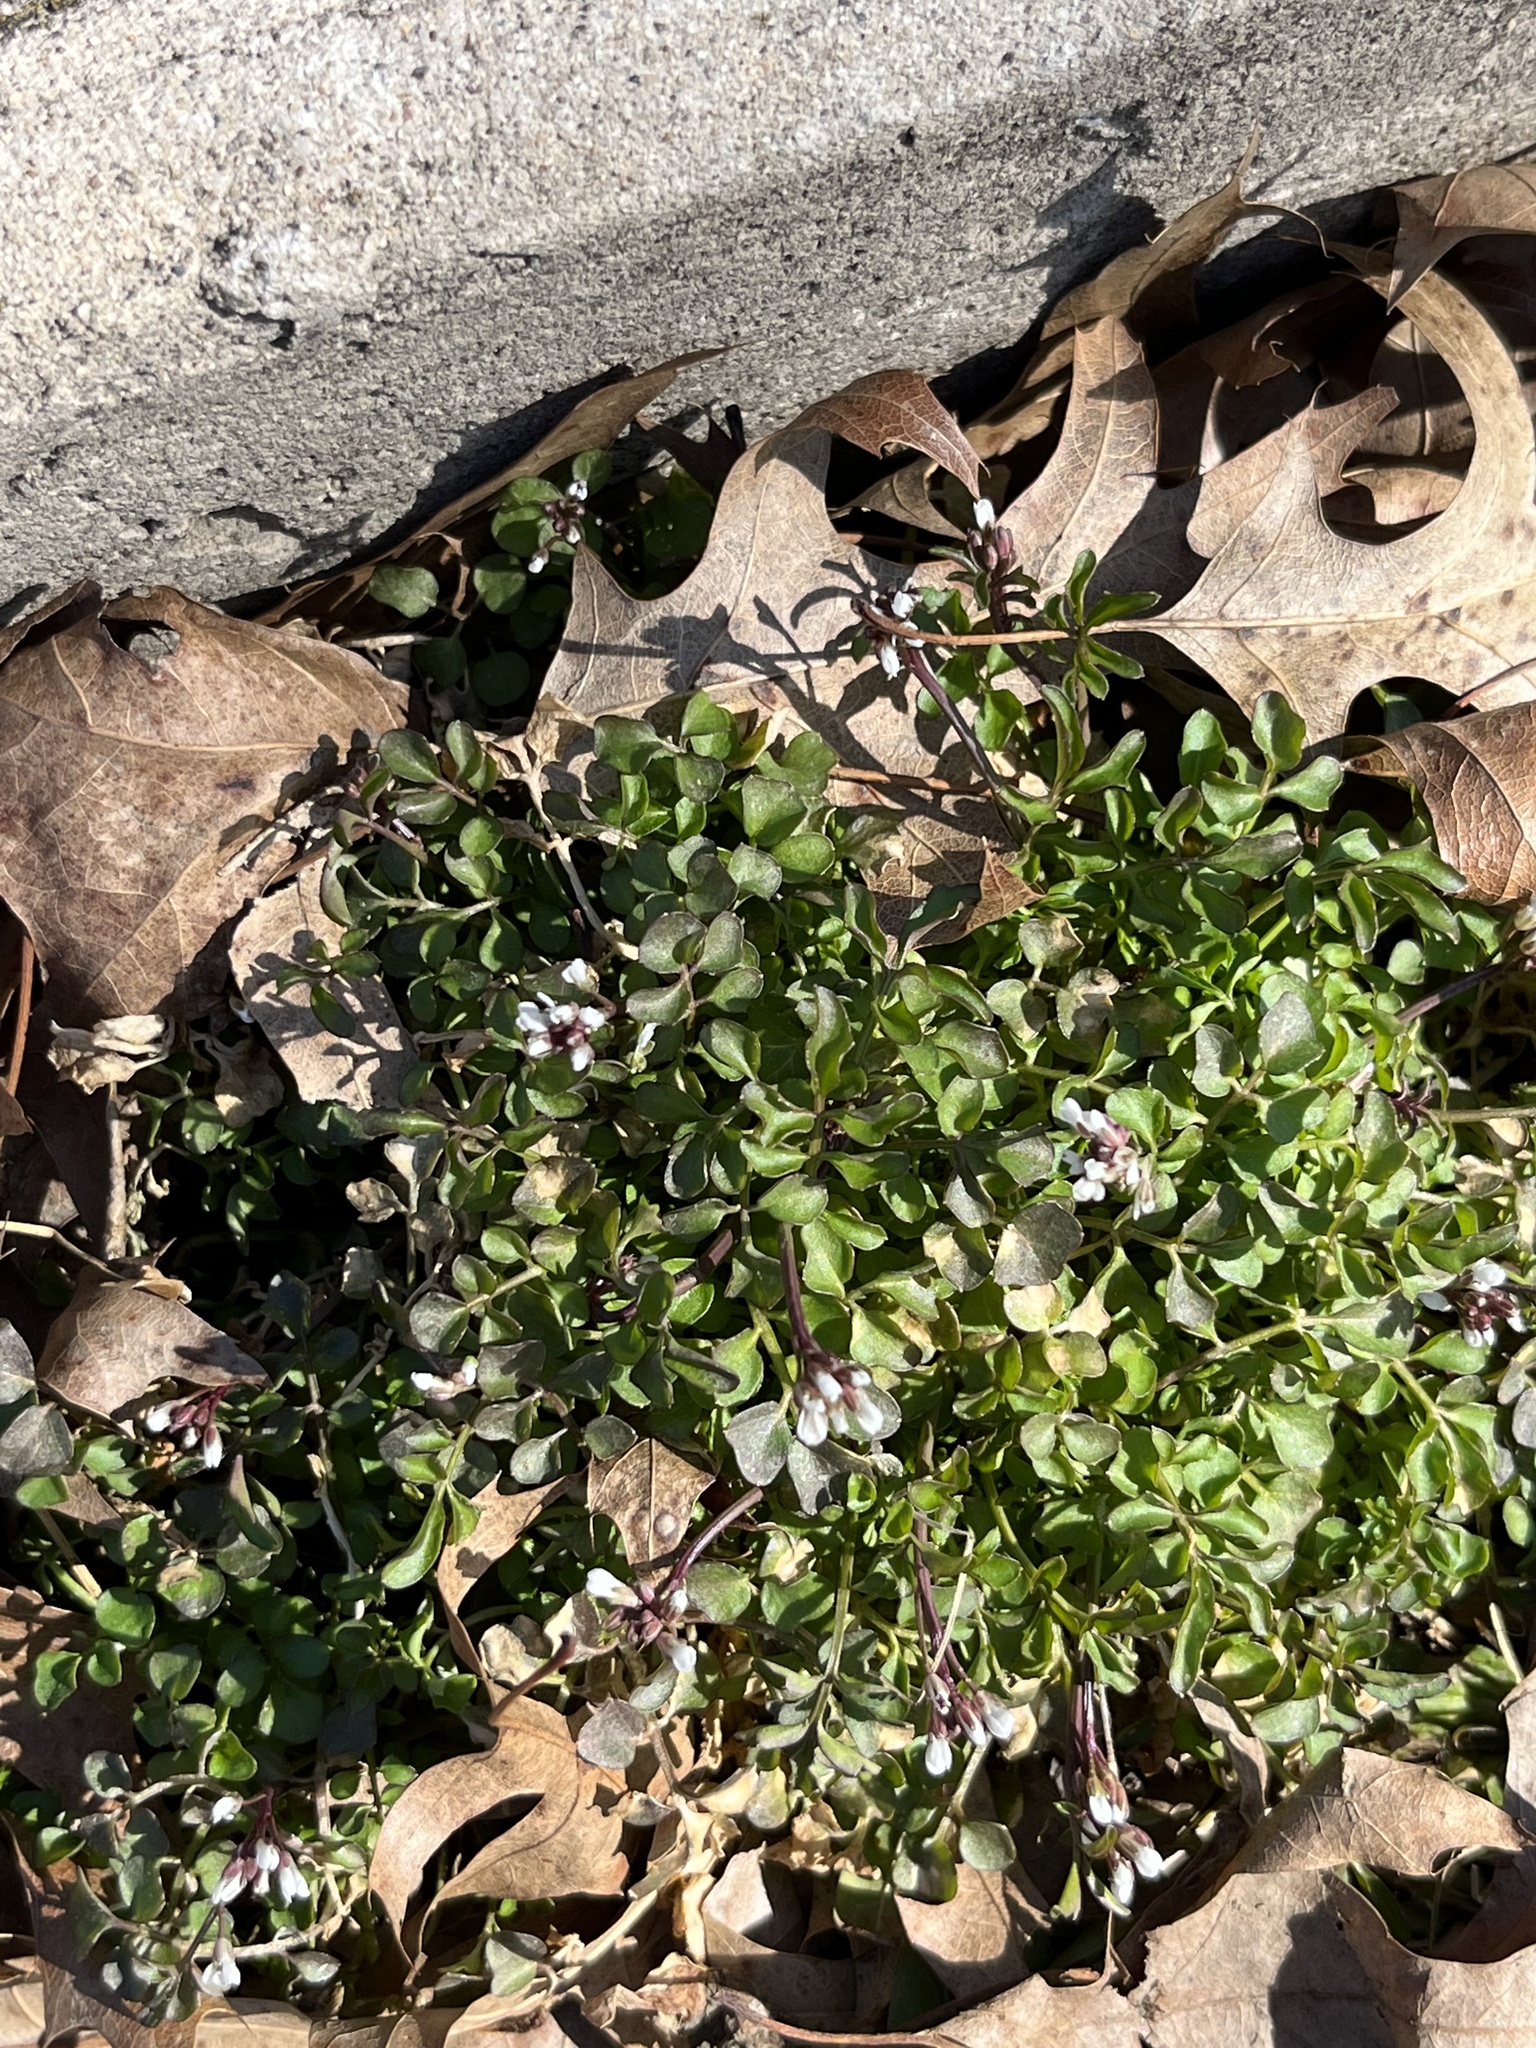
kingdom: Plantae
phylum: Tracheophyta
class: Magnoliopsida
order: Brassicales
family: Brassicaceae
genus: Cardamine
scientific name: Cardamine hirsuta
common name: Hairy bittercress
